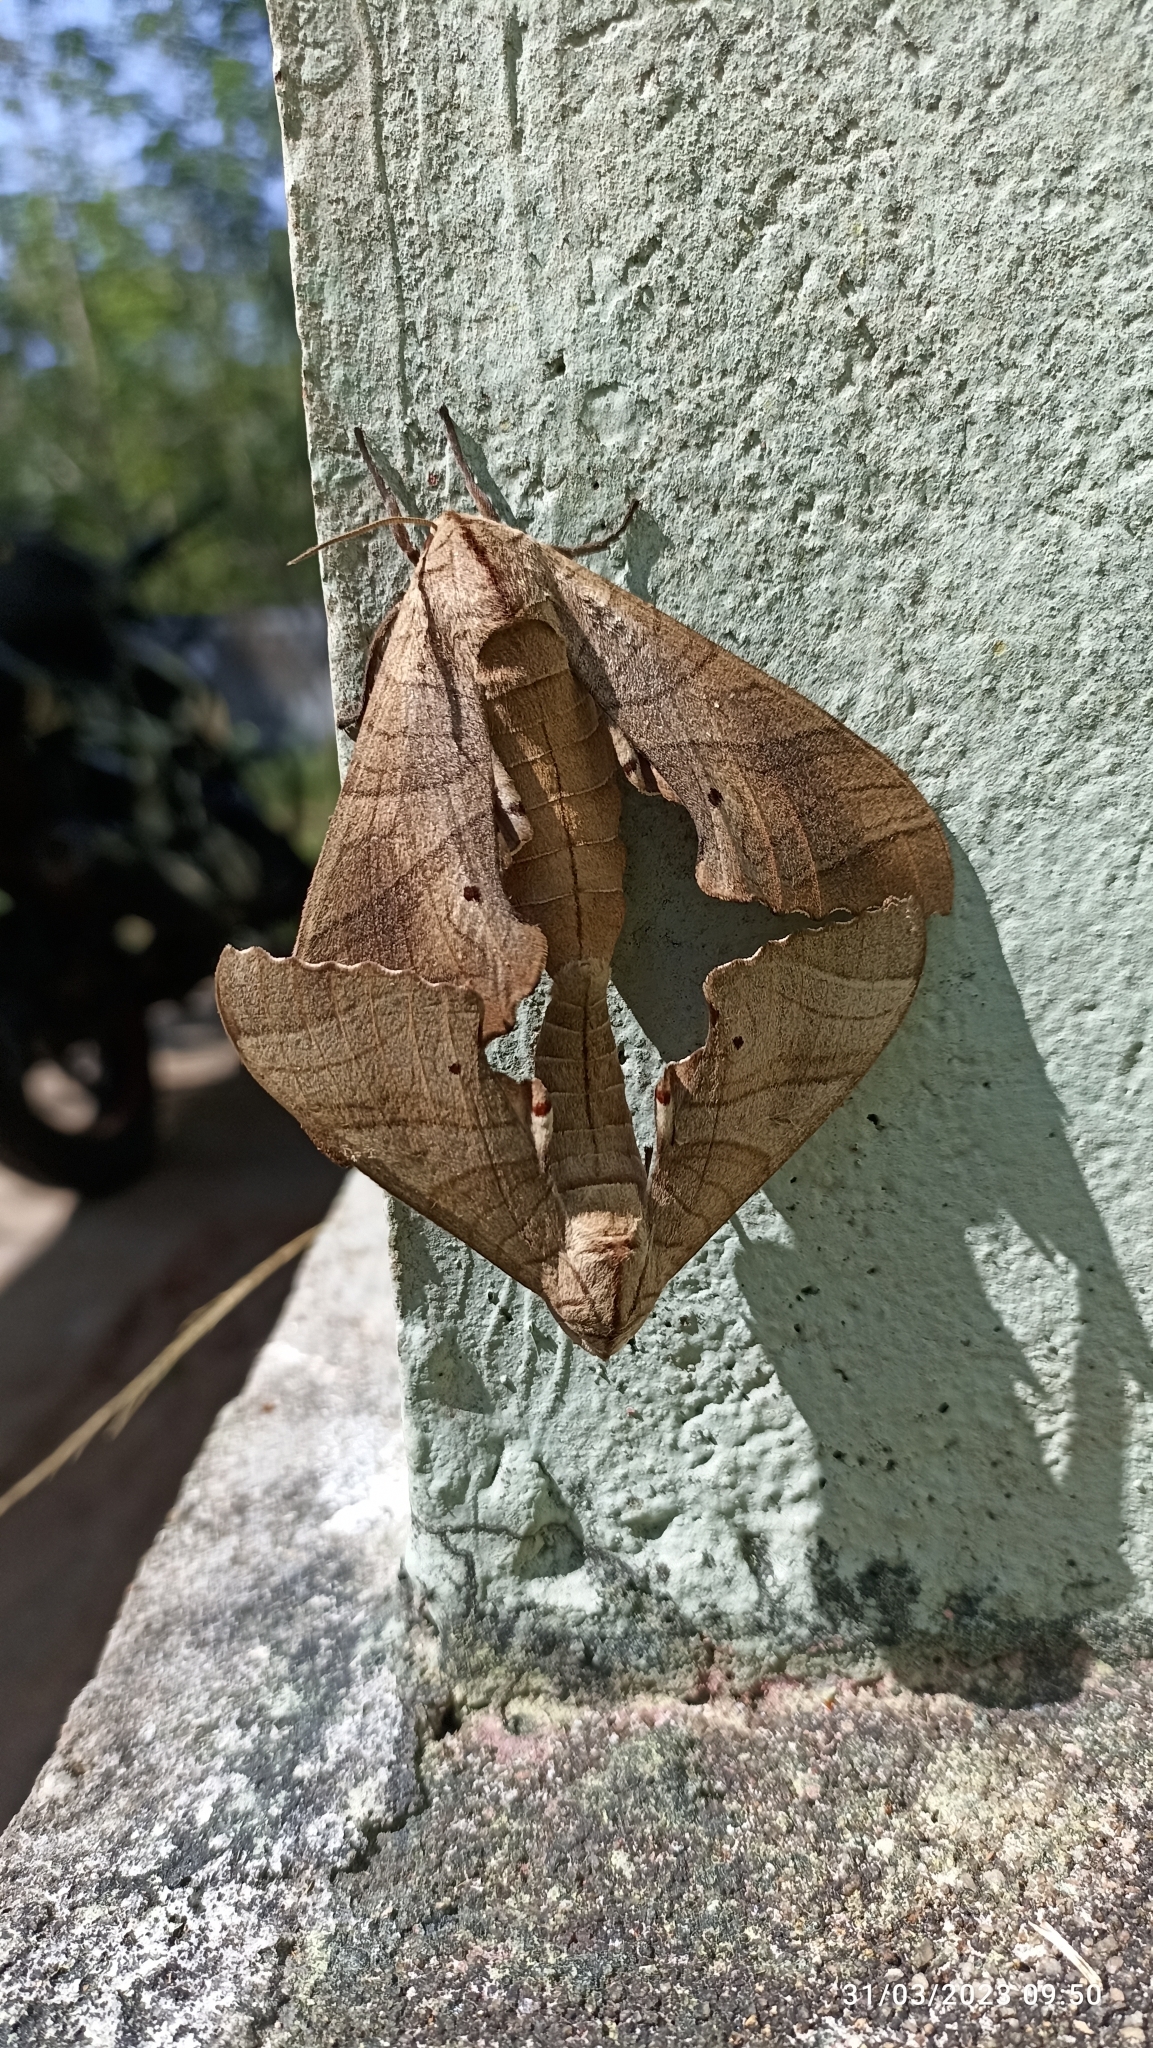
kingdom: Animalia
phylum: Arthropoda
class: Insecta
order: Lepidoptera
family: Sphingidae
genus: Marumba
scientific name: Marumba dyras
